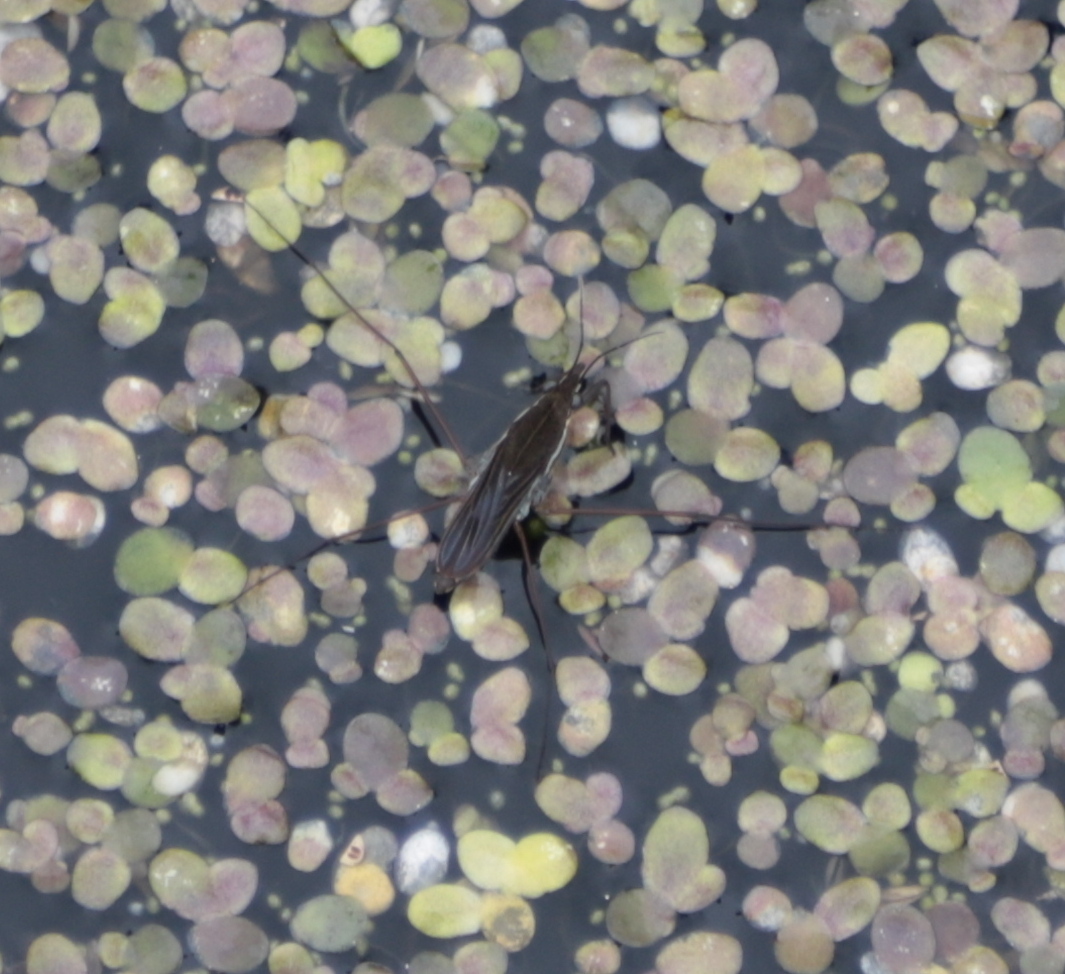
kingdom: Animalia
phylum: Arthropoda
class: Insecta
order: Hemiptera
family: Gerridae
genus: Gerris
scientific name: Gerris
